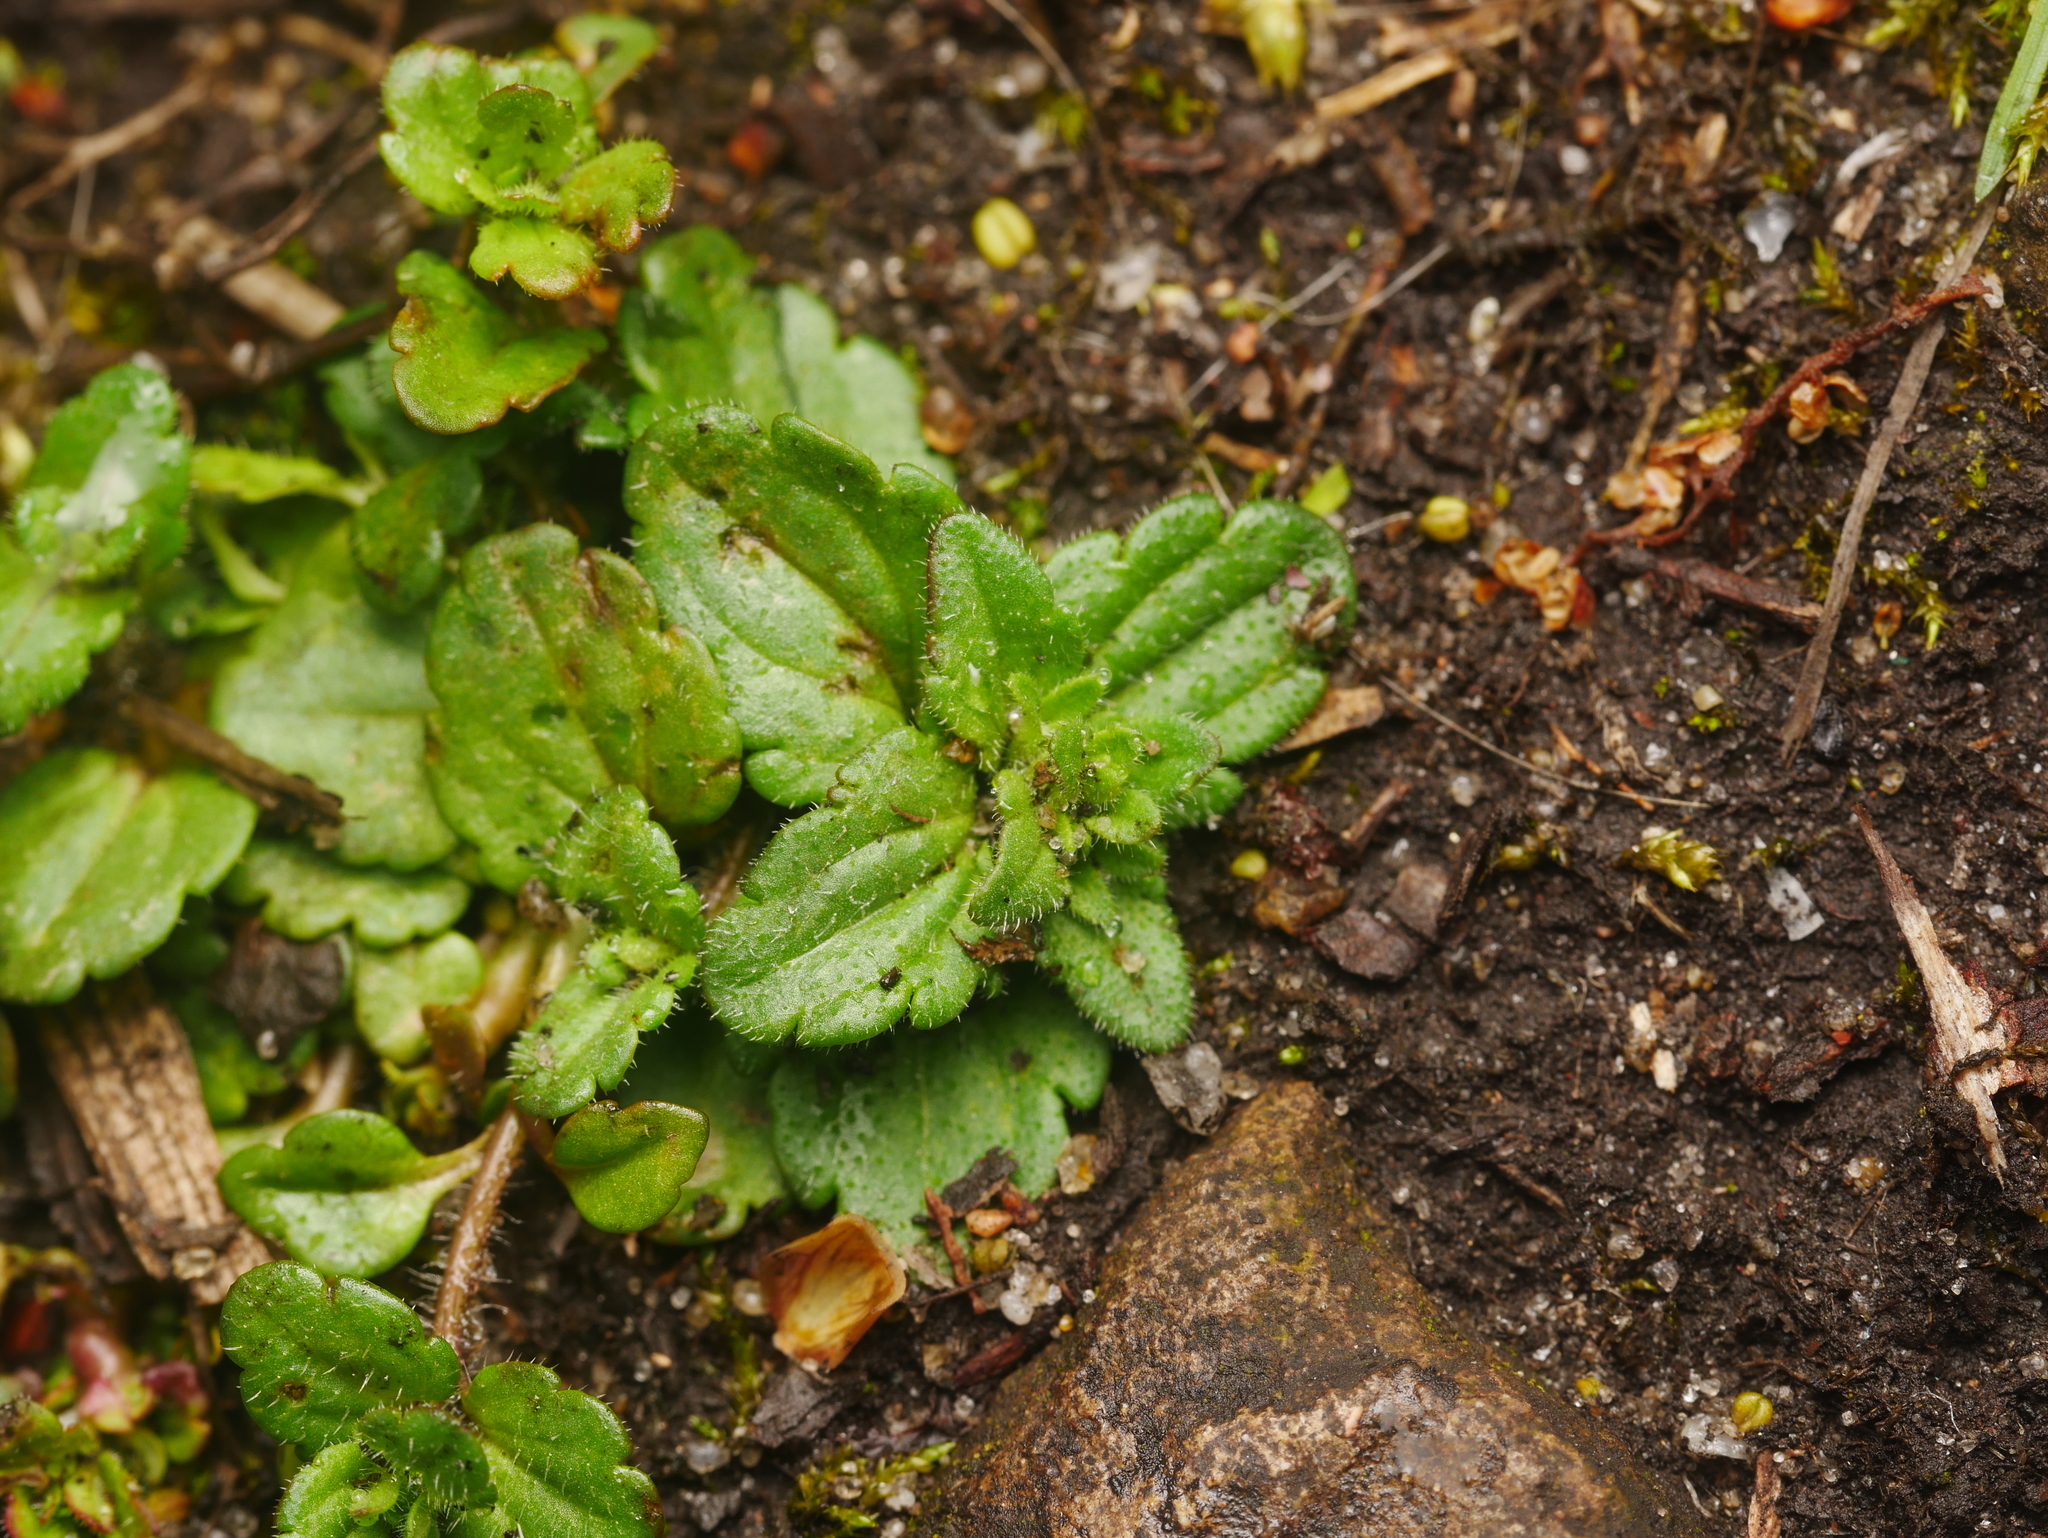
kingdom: Plantae
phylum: Tracheophyta
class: Magnoliopsida
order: Lamiales
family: Plantaginaceae
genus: Veronica
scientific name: Veronica arvensis
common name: Corn speedwell
